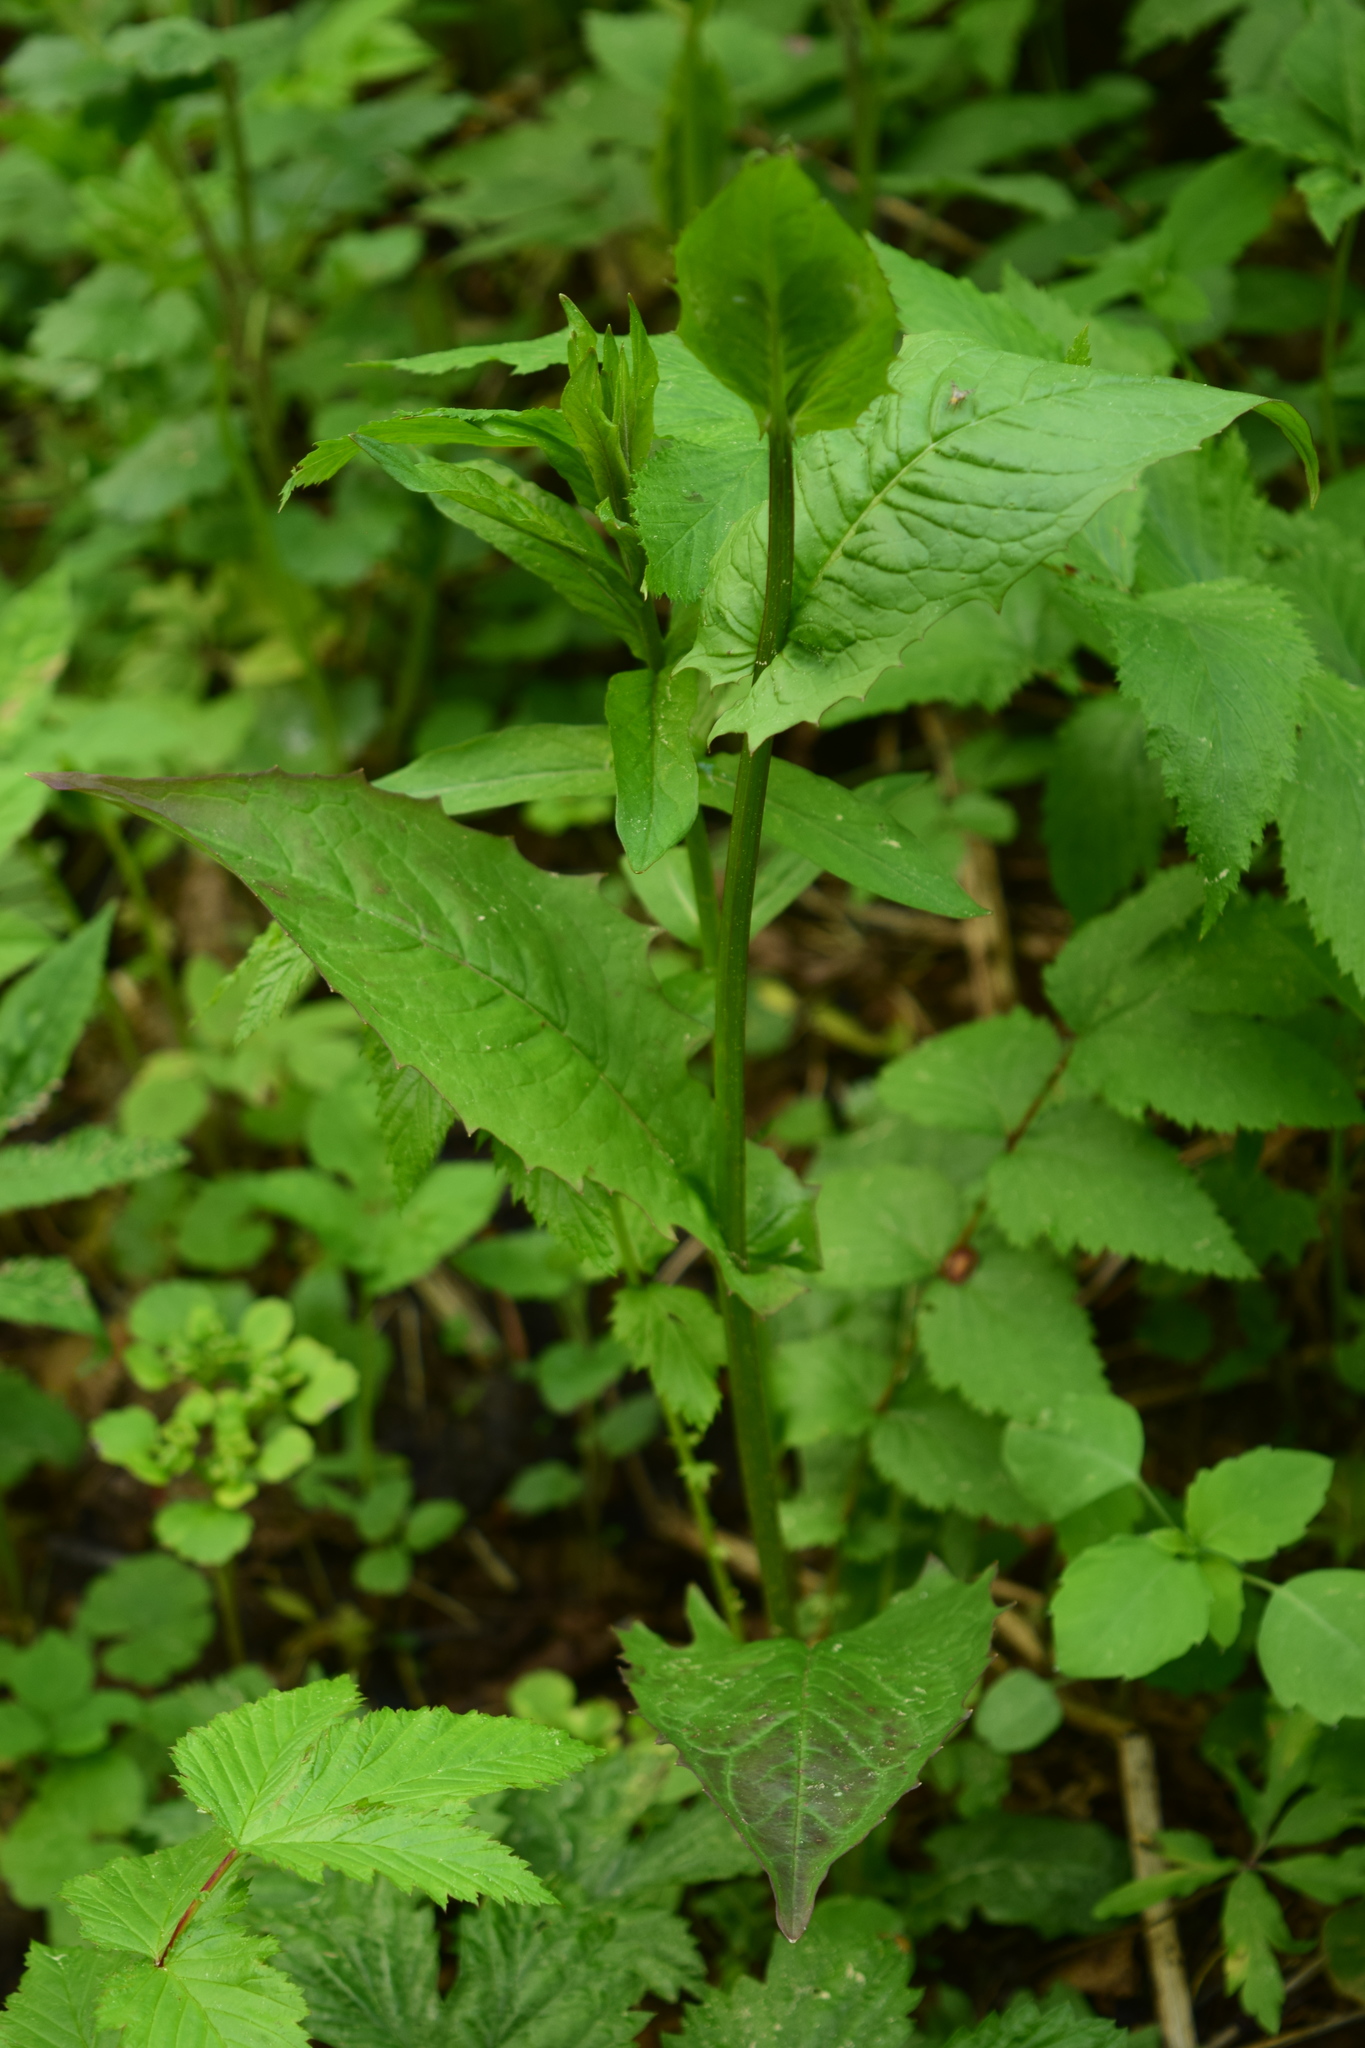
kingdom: Plantae
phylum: Tracheophyta
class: Magnoliopsida
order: Asterales
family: Asteraceae
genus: Crepis
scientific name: Crepis paludosa
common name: Marsh hawk's-beard
